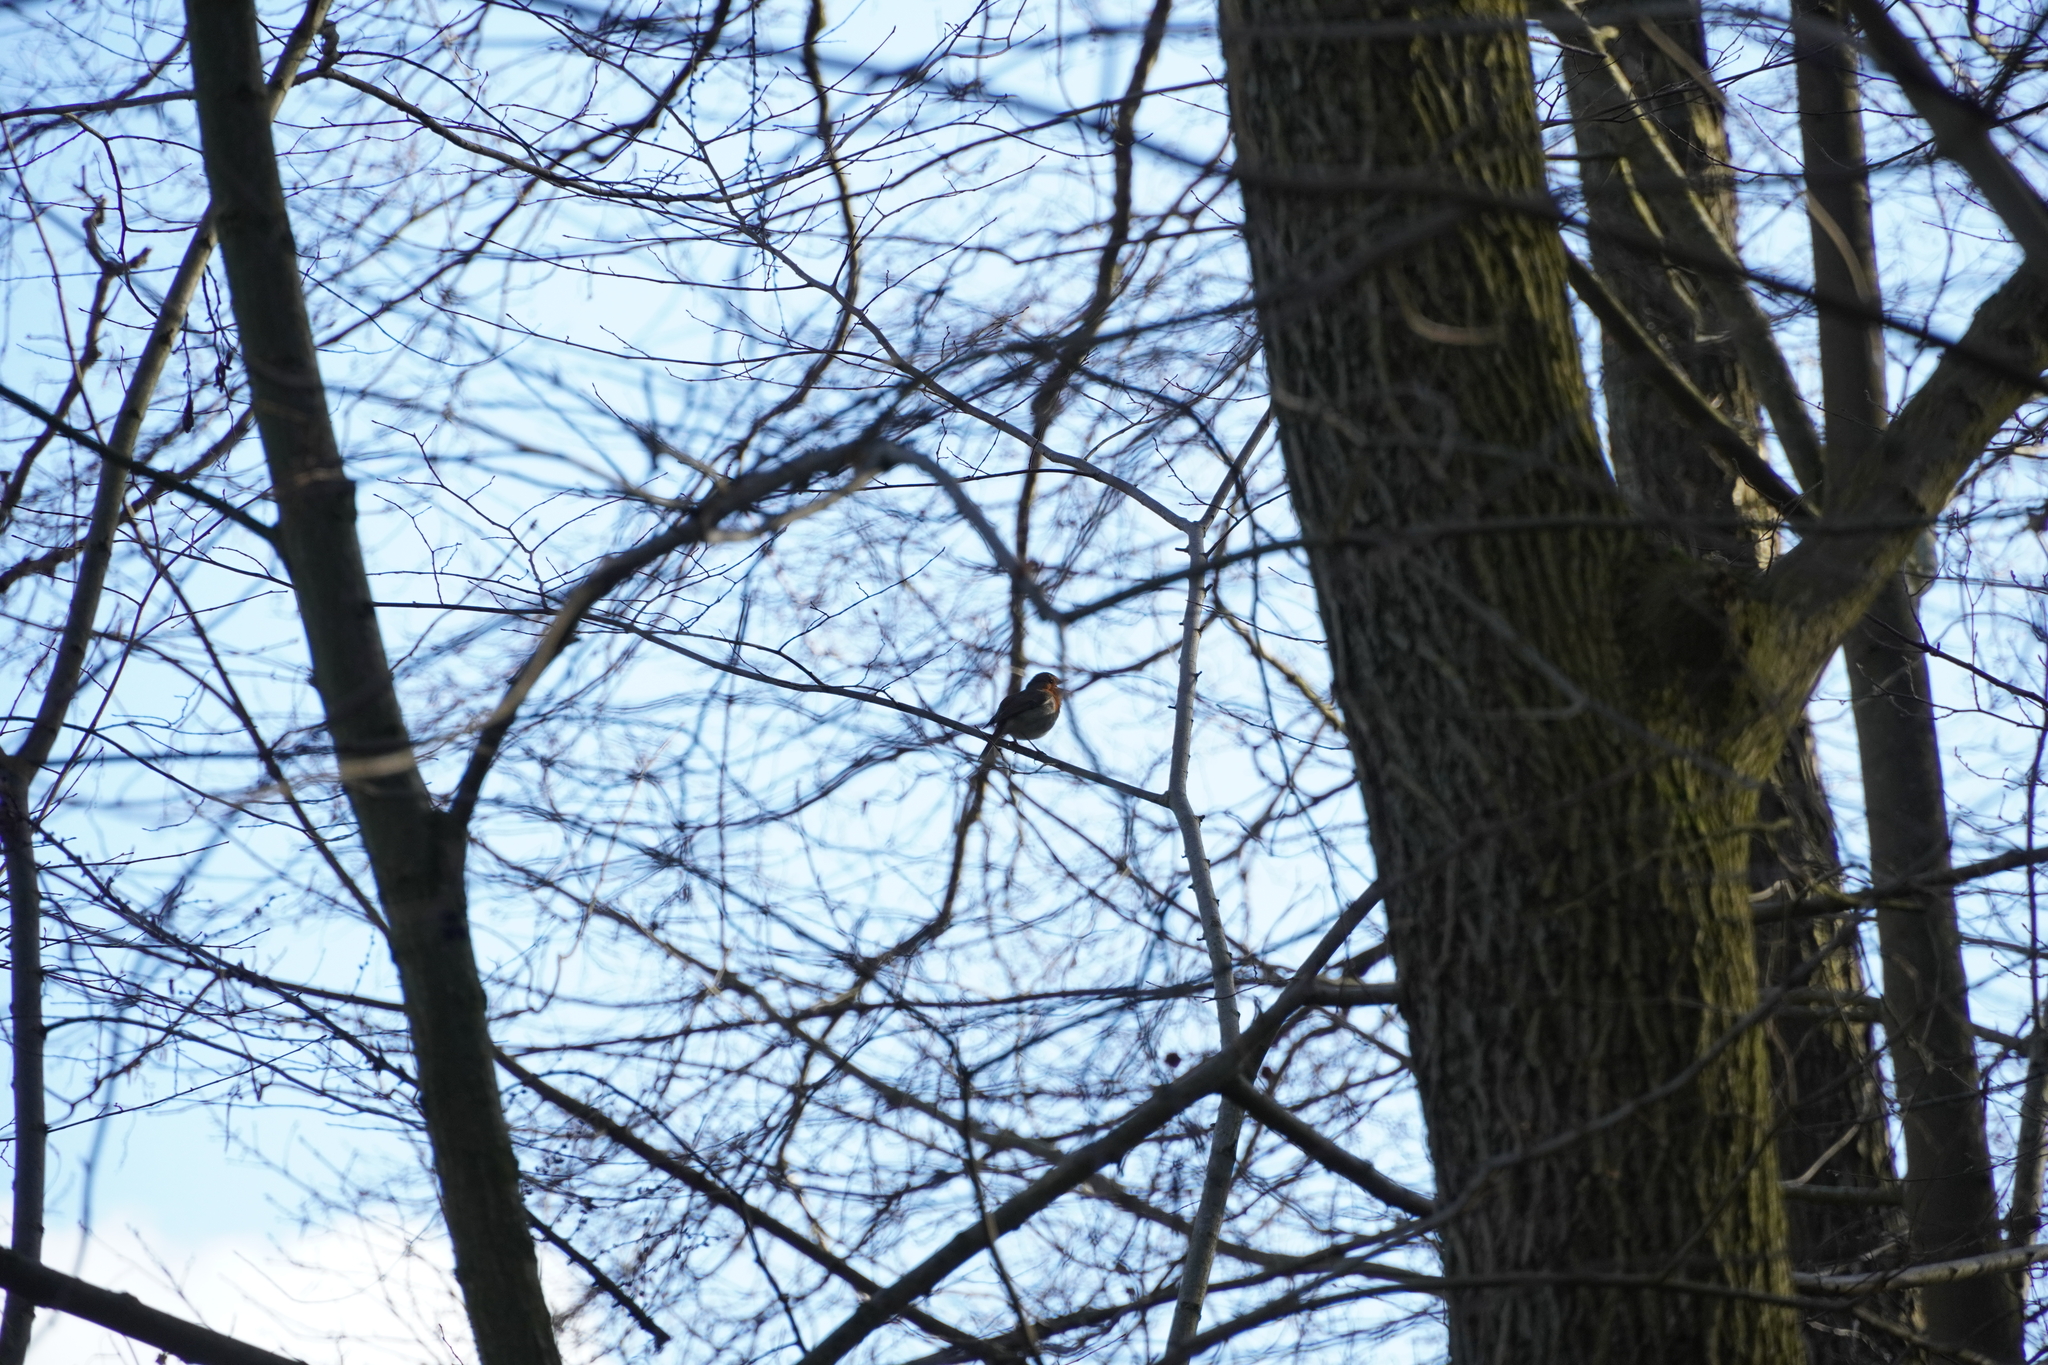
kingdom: Animalia
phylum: Chordata
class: Aves
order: Passeriformes
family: Muscicapidae
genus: Erithacus
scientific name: Erithacus rubecula
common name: European robin
